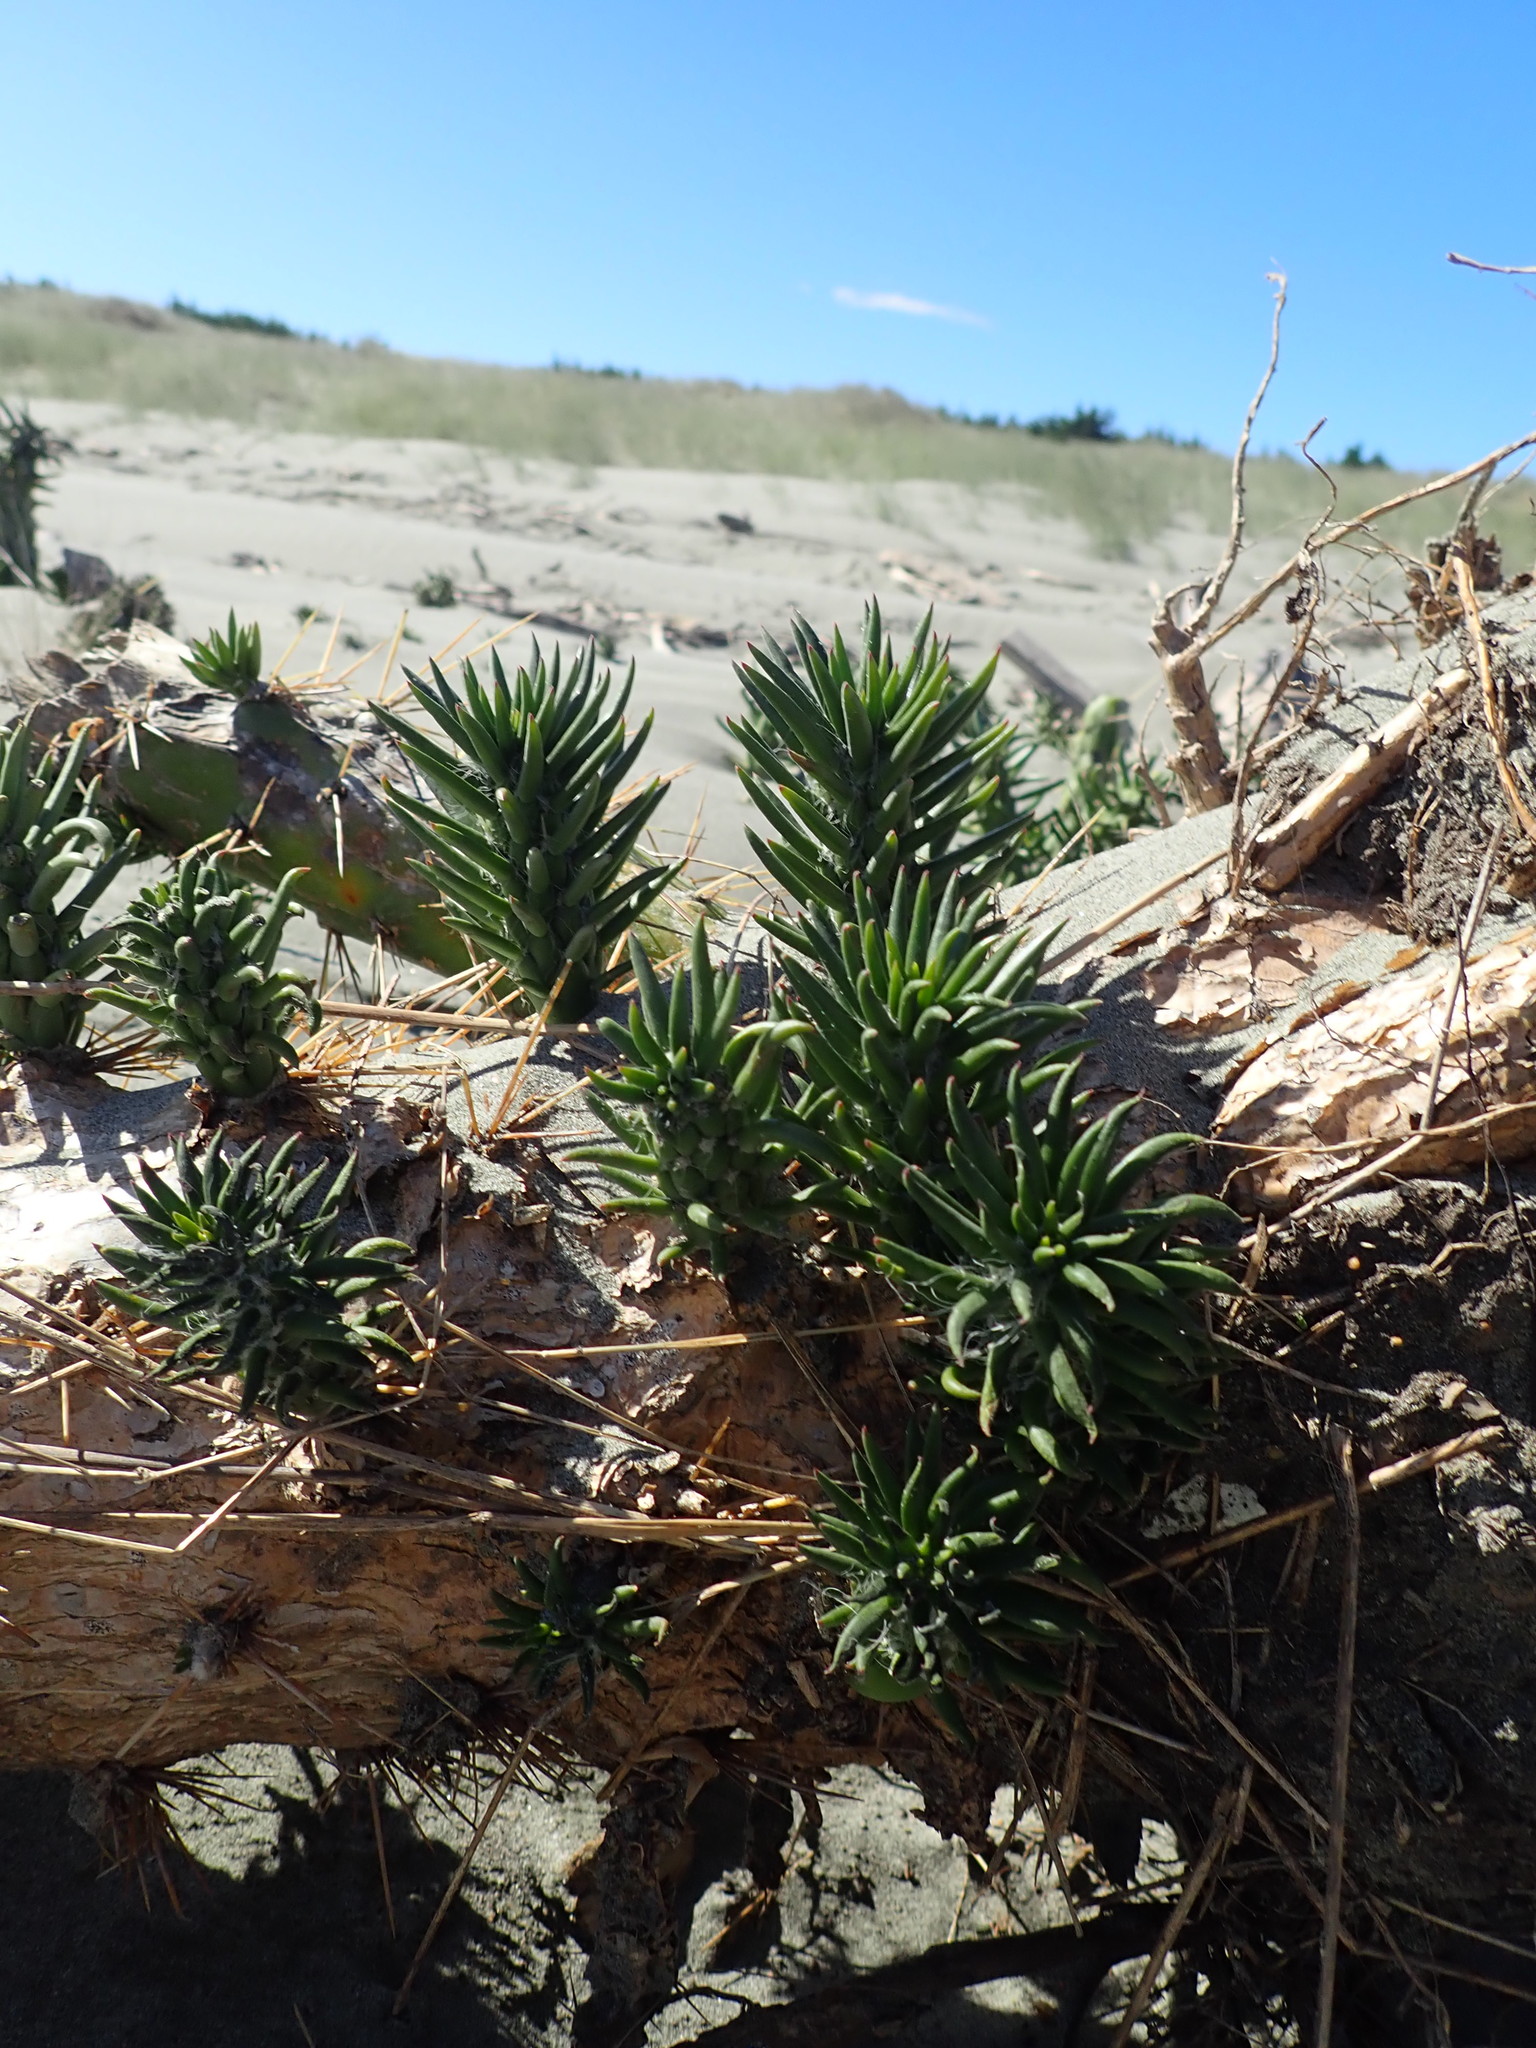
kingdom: Plantae
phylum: Tracheophyta
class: Magnoliopsida
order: Caryophyllales
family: Cactaceae
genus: Austrocylindropuntia
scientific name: Austrocylindropuntia subulata
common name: Eve's needle cactus
